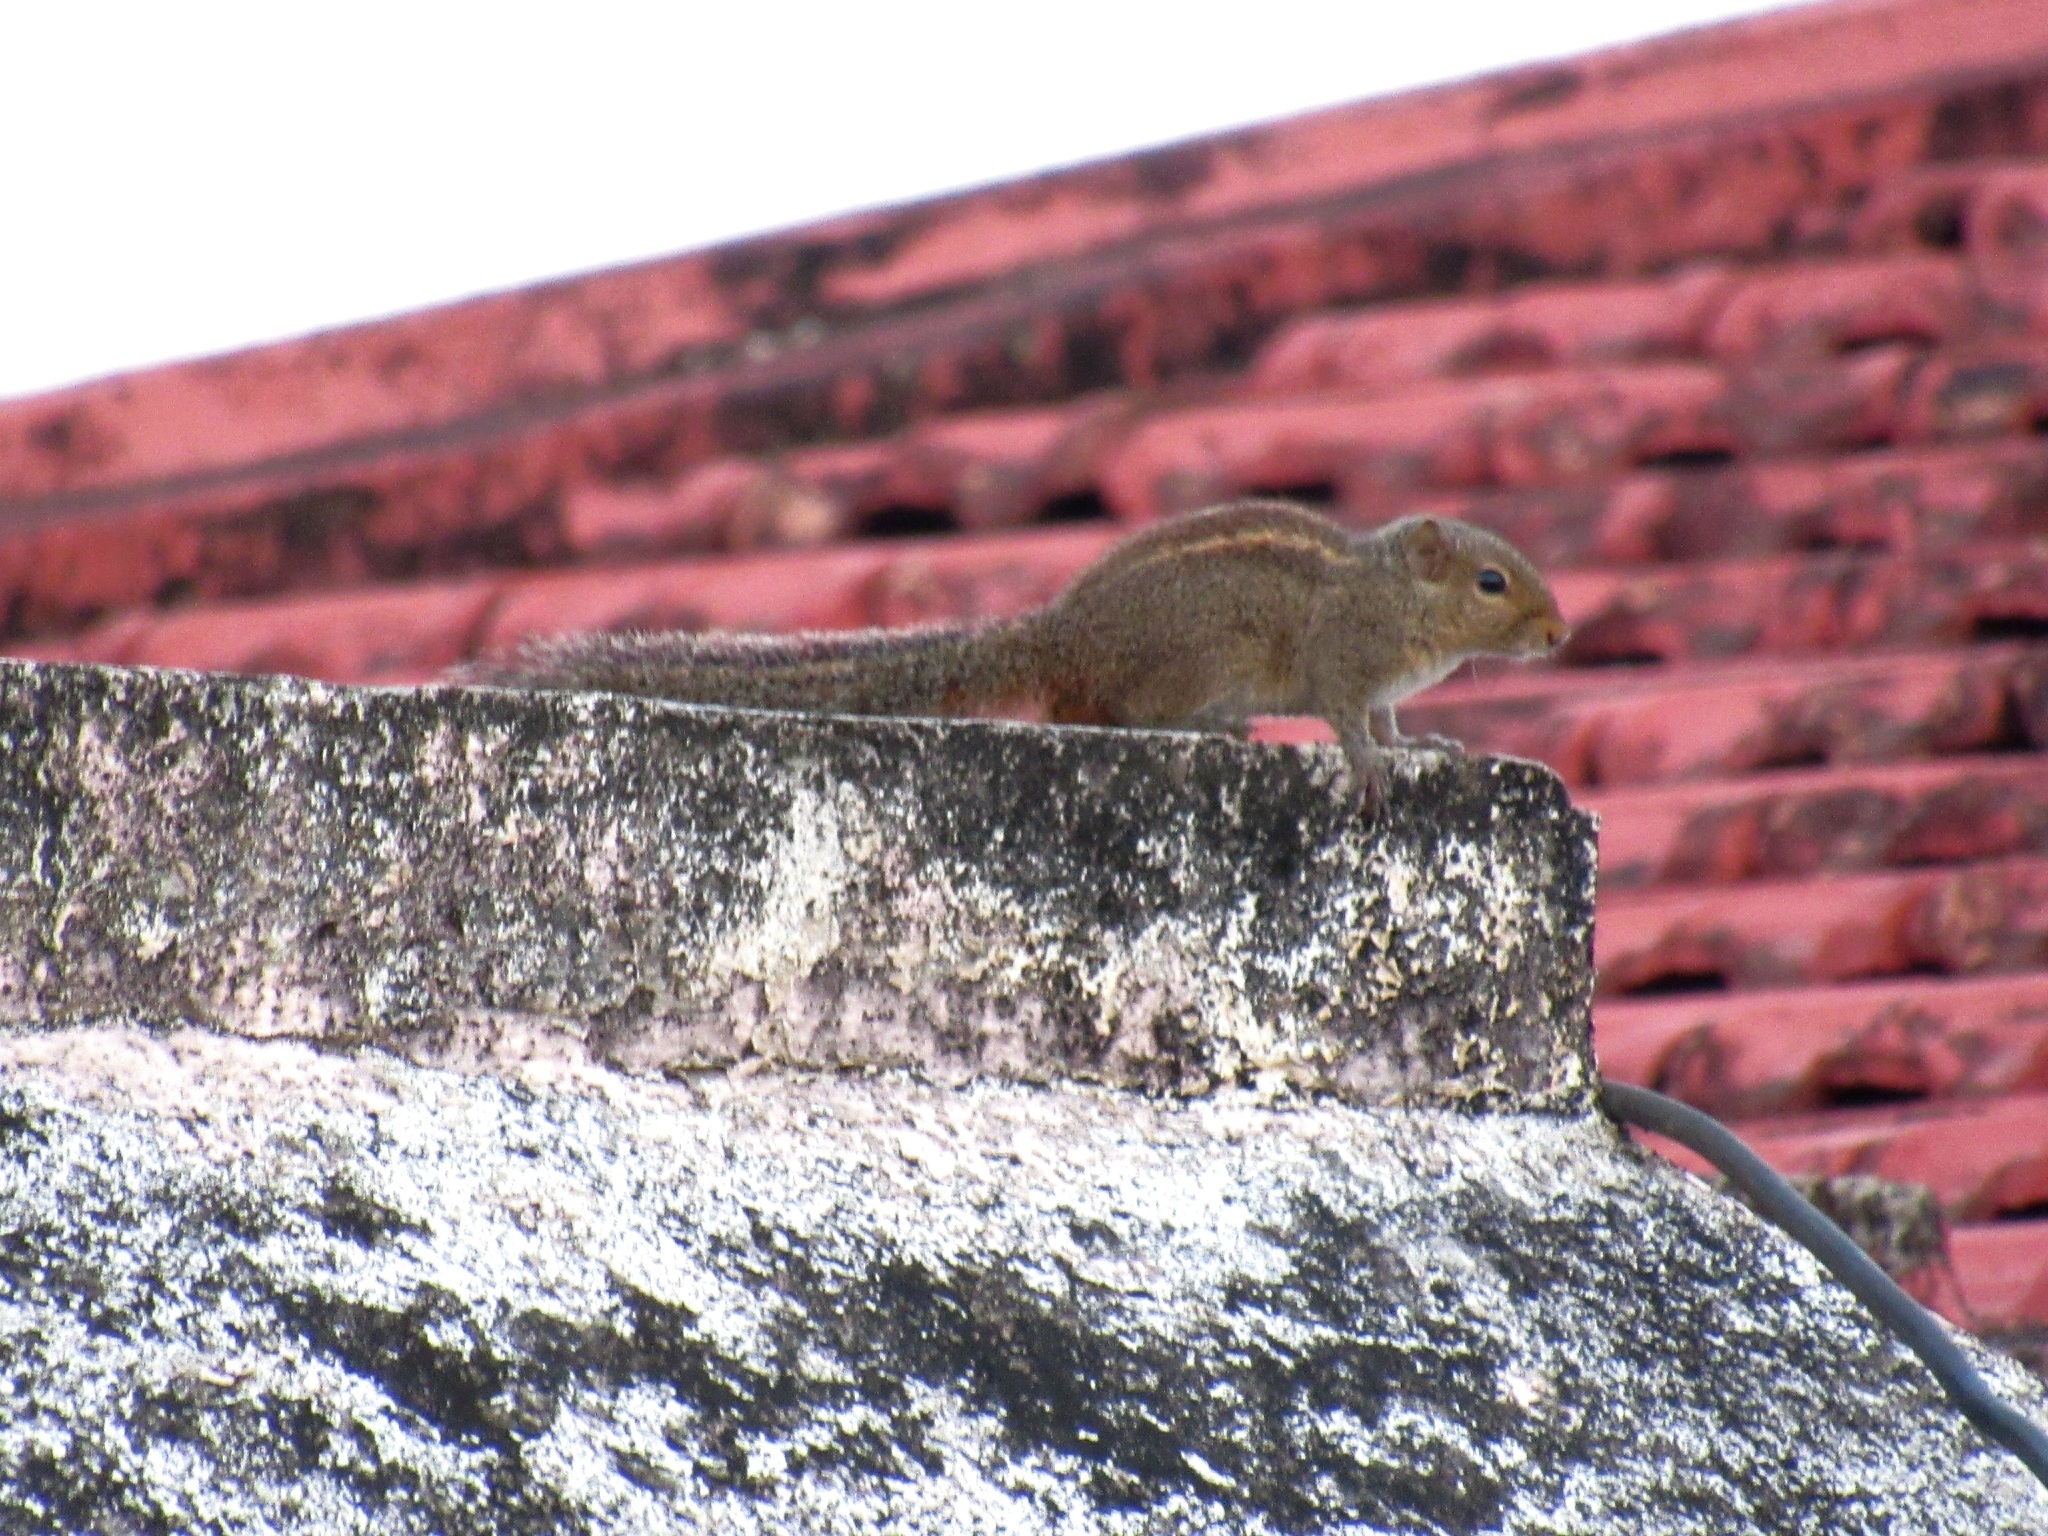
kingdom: Animalia
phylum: Chordata
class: Mammalia
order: Rodentia
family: Sciuridae
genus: Funambulus
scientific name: Funambulus tristriatus
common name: Jungle palm squirrel
